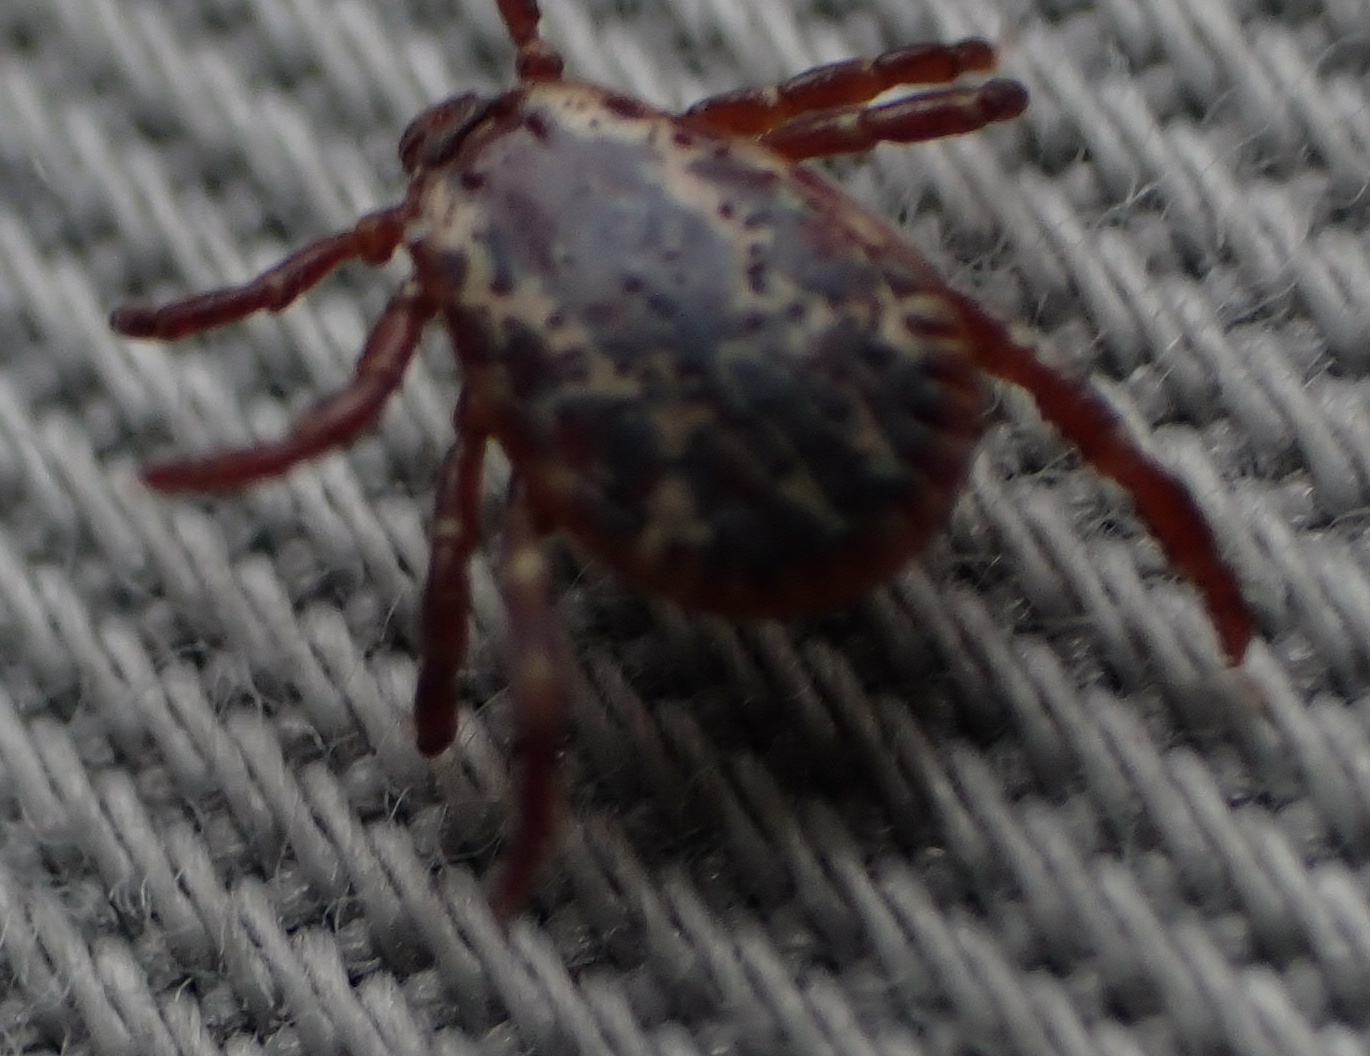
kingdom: Animalia
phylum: Arthropoda
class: Arachnida
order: Ixodida
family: Ixodidae
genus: Dermacentor
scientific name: Dermacentor variabilis
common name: American dog tick
